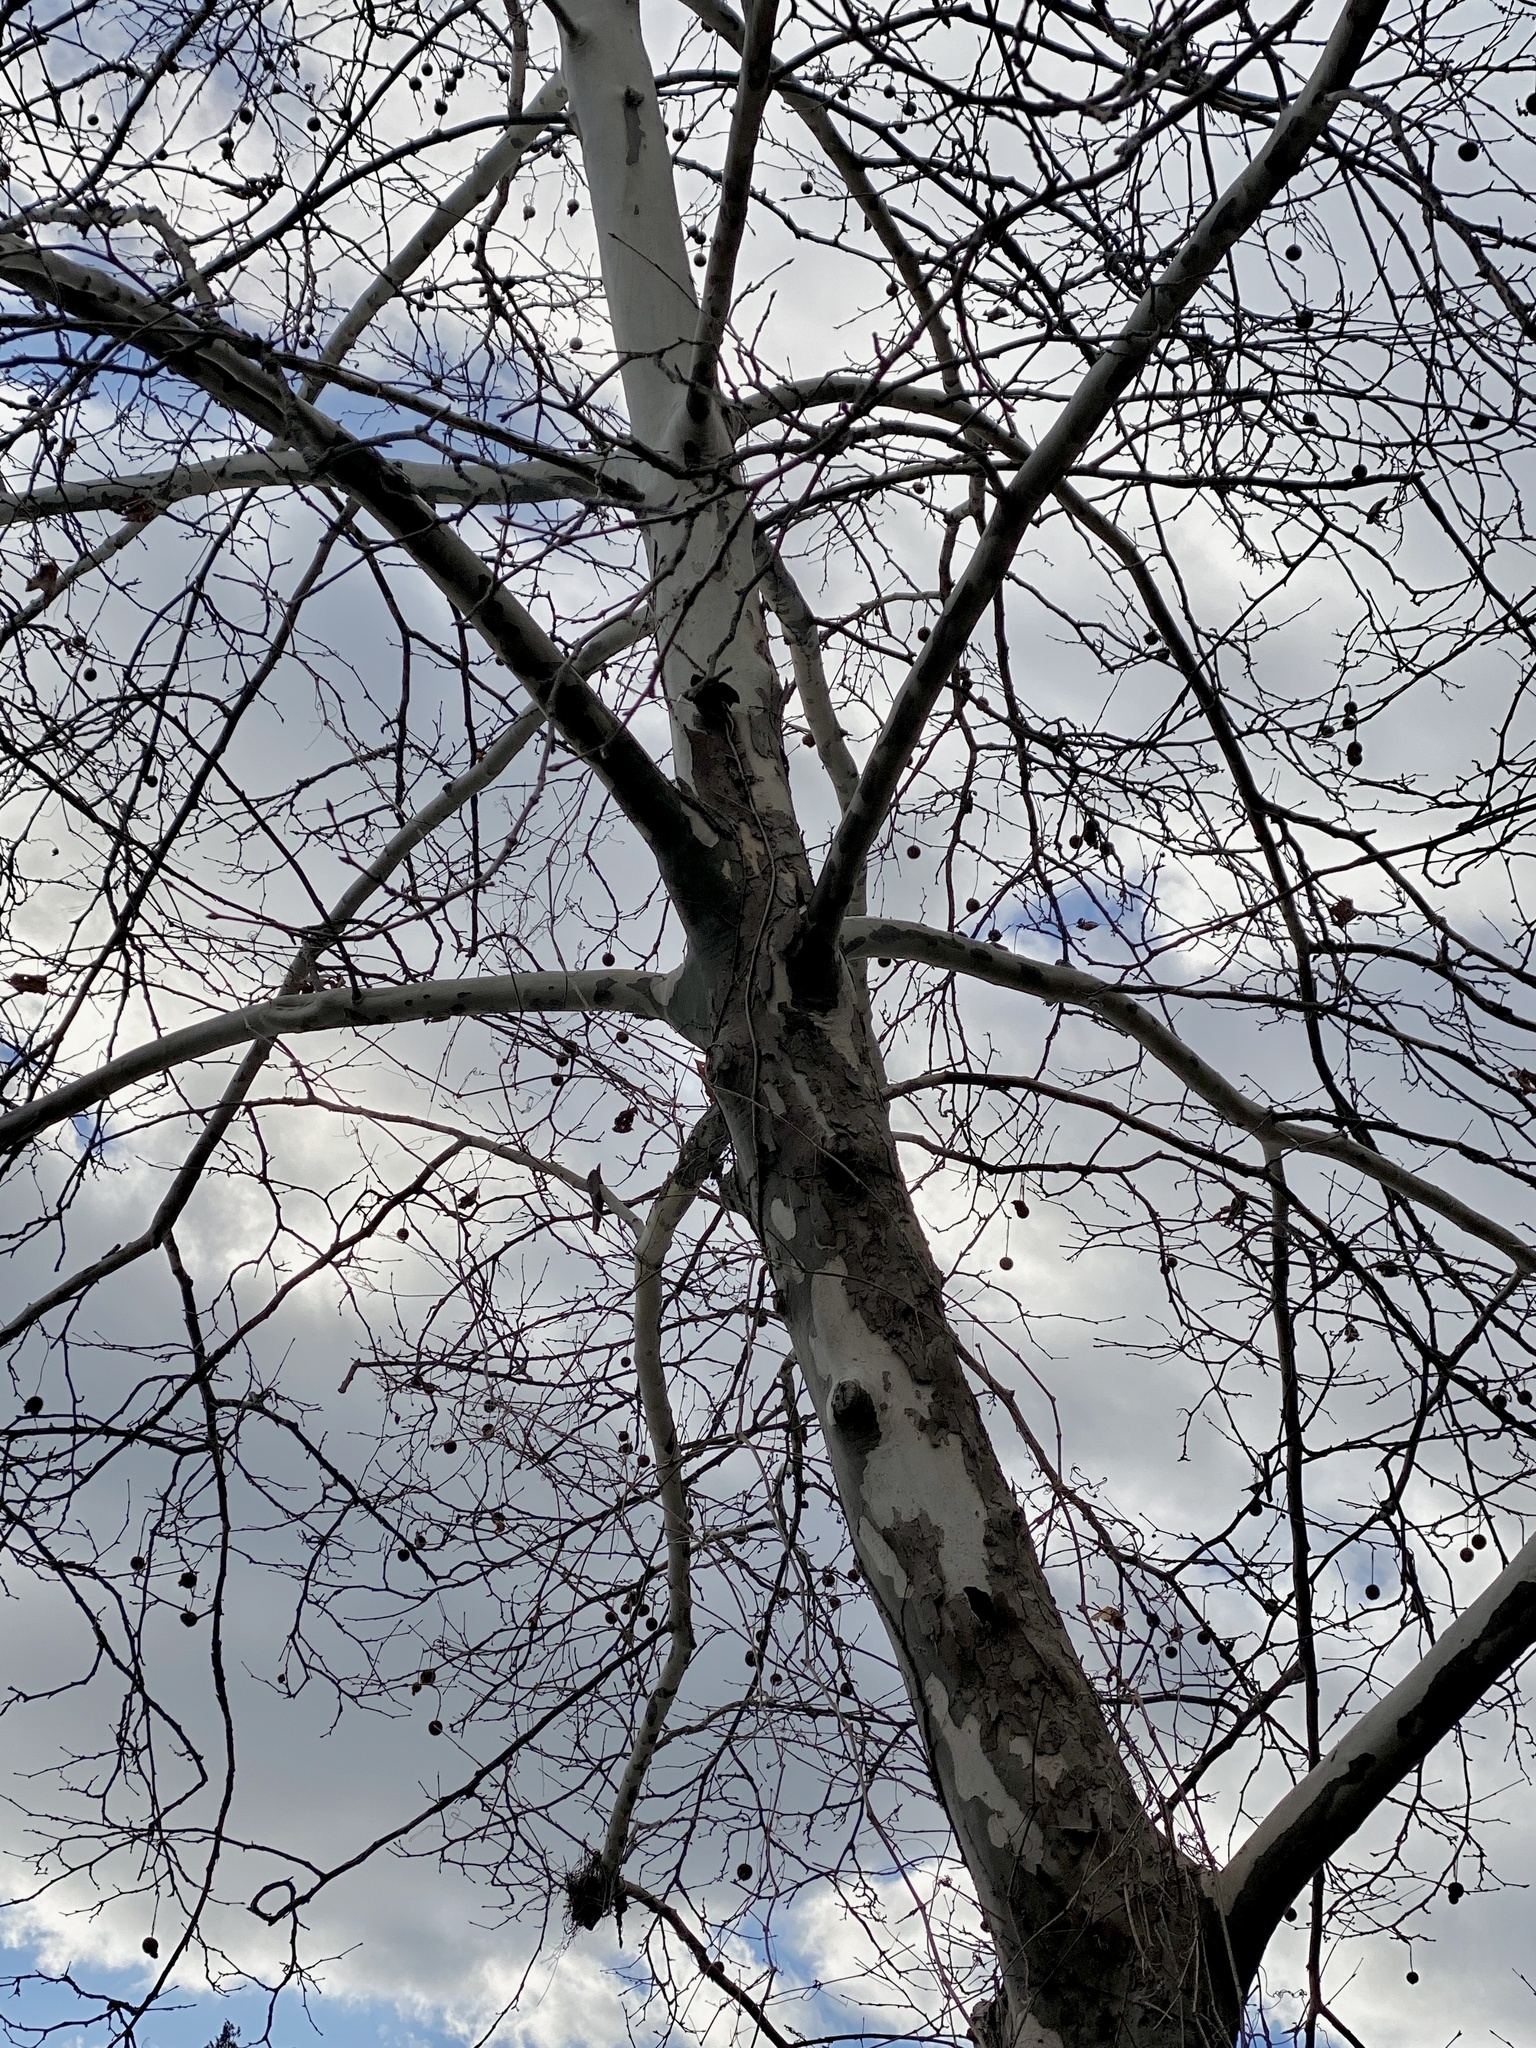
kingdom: Plantae
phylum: Tracheophyta
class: Magnoliopsida
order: Proteales
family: Platanaceae
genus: Platanus
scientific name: Platanus occidentalis
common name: American sycamore
